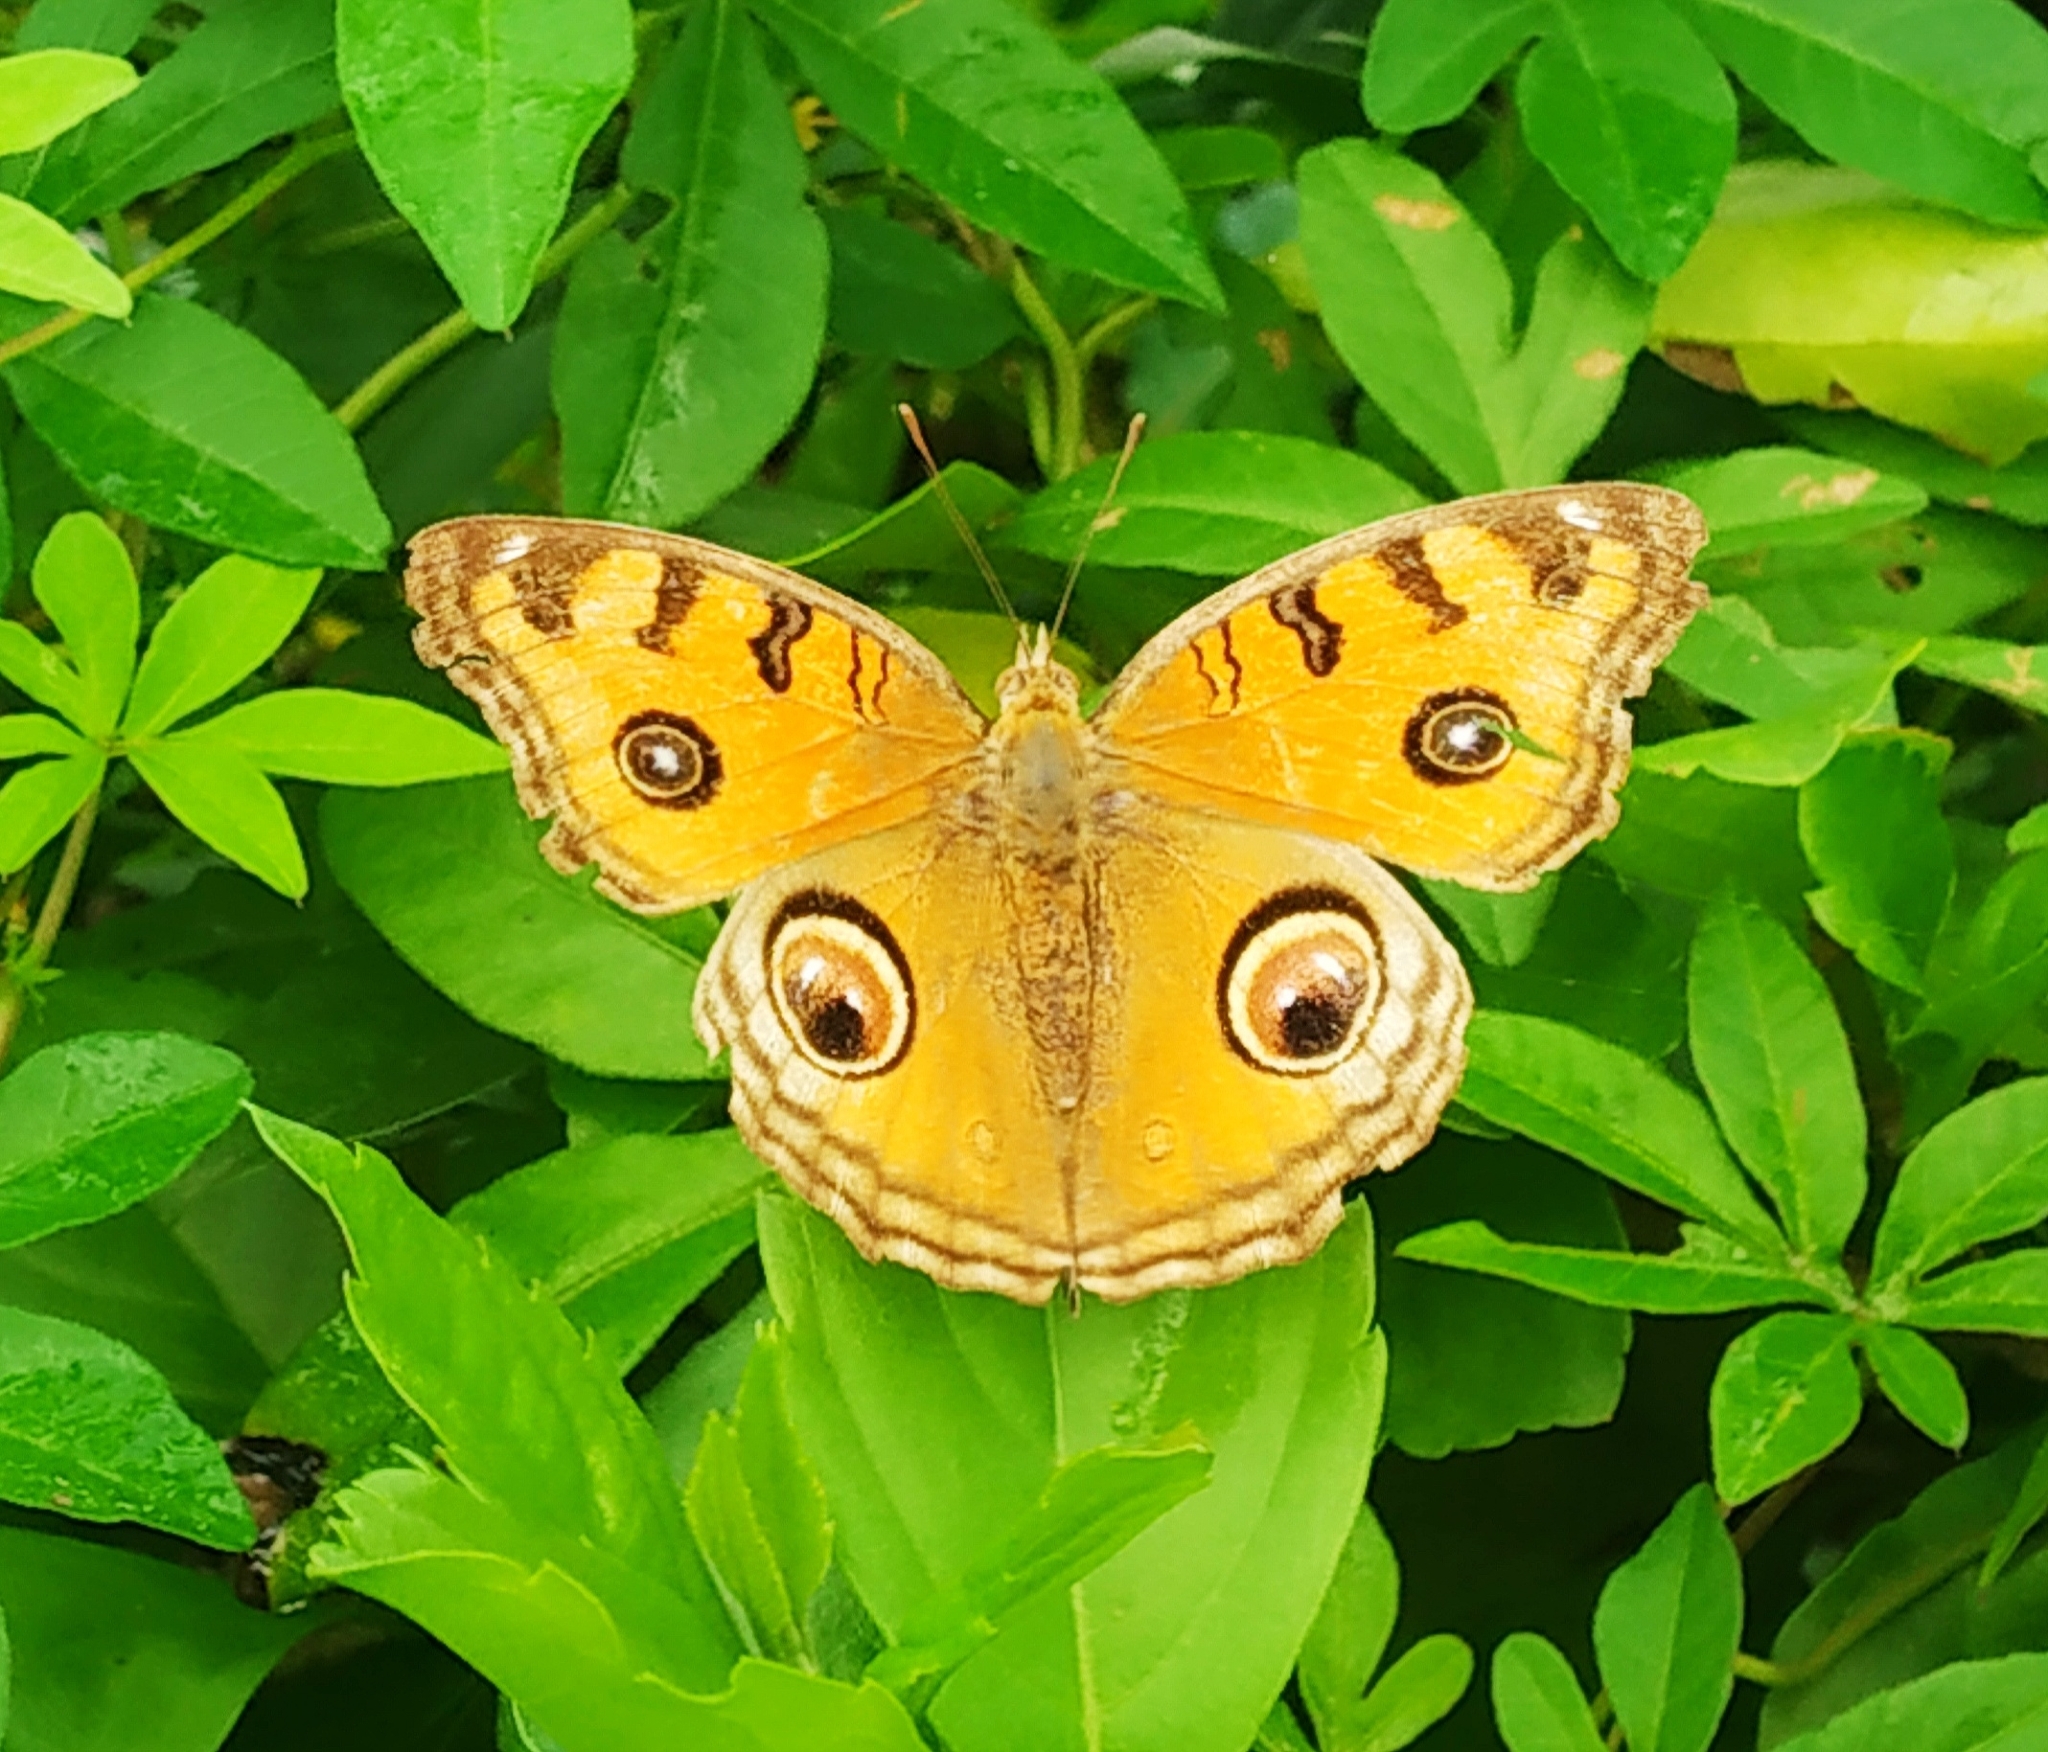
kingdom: Animalia
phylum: Arthropoda
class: Insecta
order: Lepidoptera
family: Nymphalidae
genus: Junonia
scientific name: Junonia almana
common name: Peacock pansy
